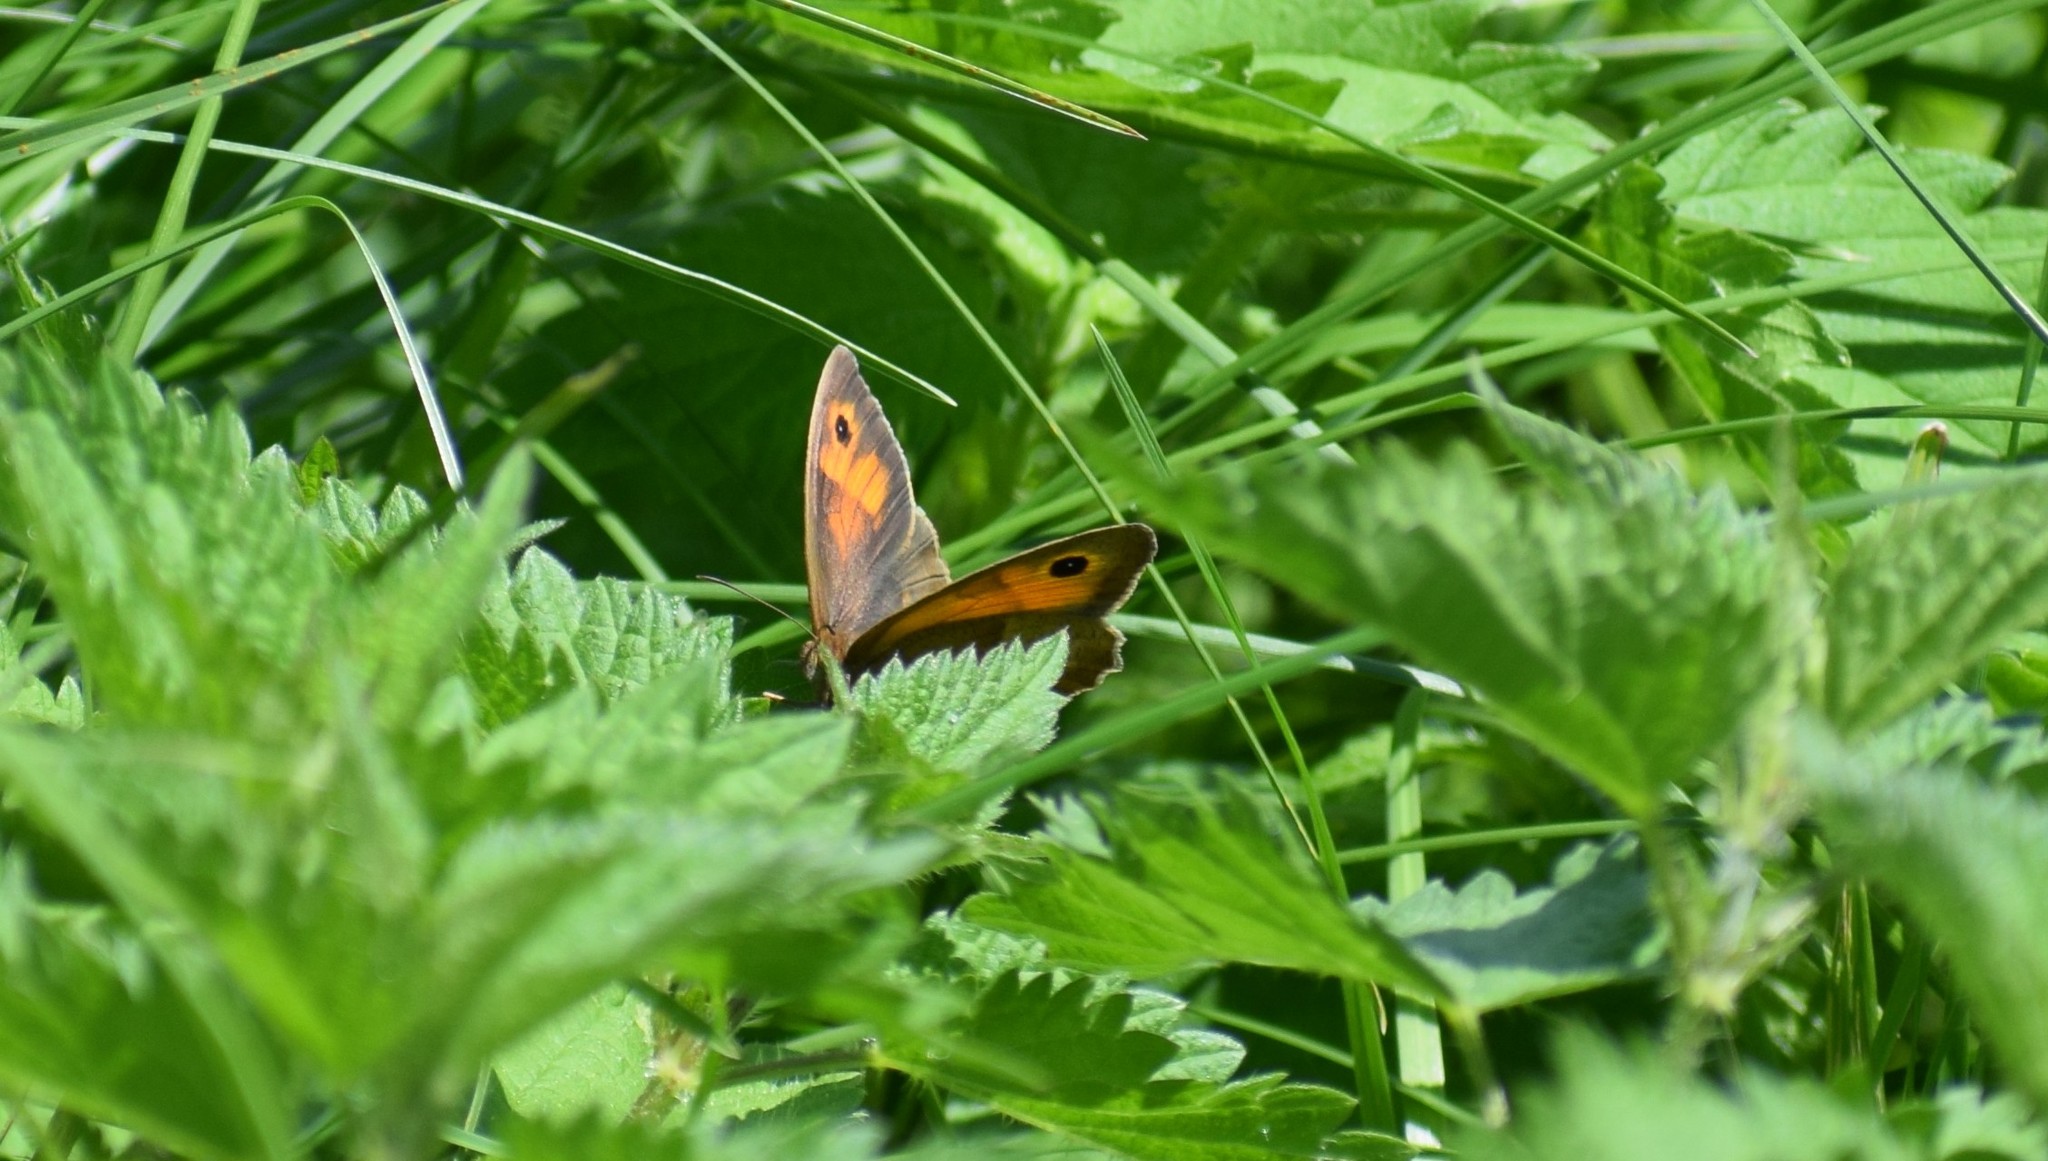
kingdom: Animalia
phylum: Arthropoda
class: Insecta
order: Lepidoptera
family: Nymphalidae
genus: Maniola
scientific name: Maniola jurtina
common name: Meadow brown
